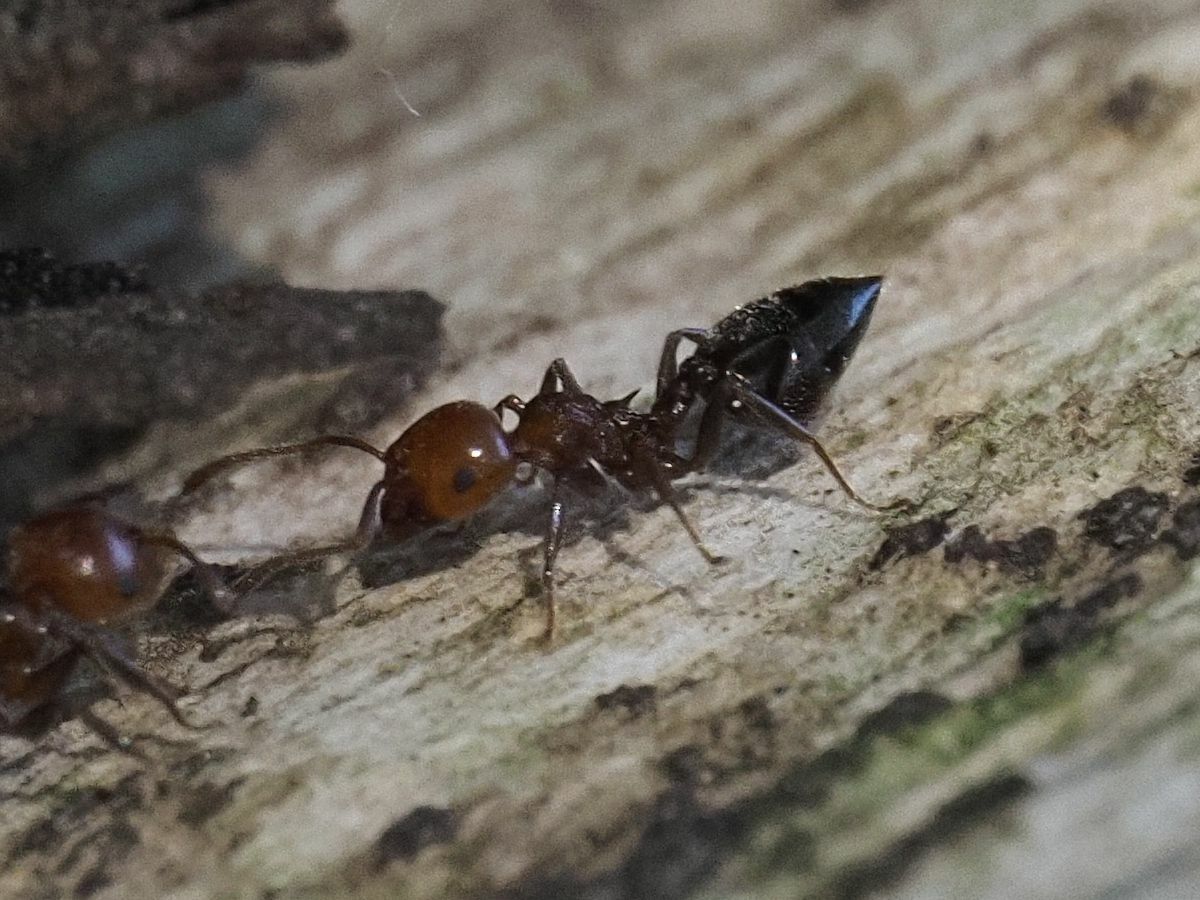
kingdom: Animalia
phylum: Arthropoda
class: Insecta
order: Hymenoptera
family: Formicidae
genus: Crematogaster
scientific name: Crematogaster scutellaris
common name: Fourmi du liège
